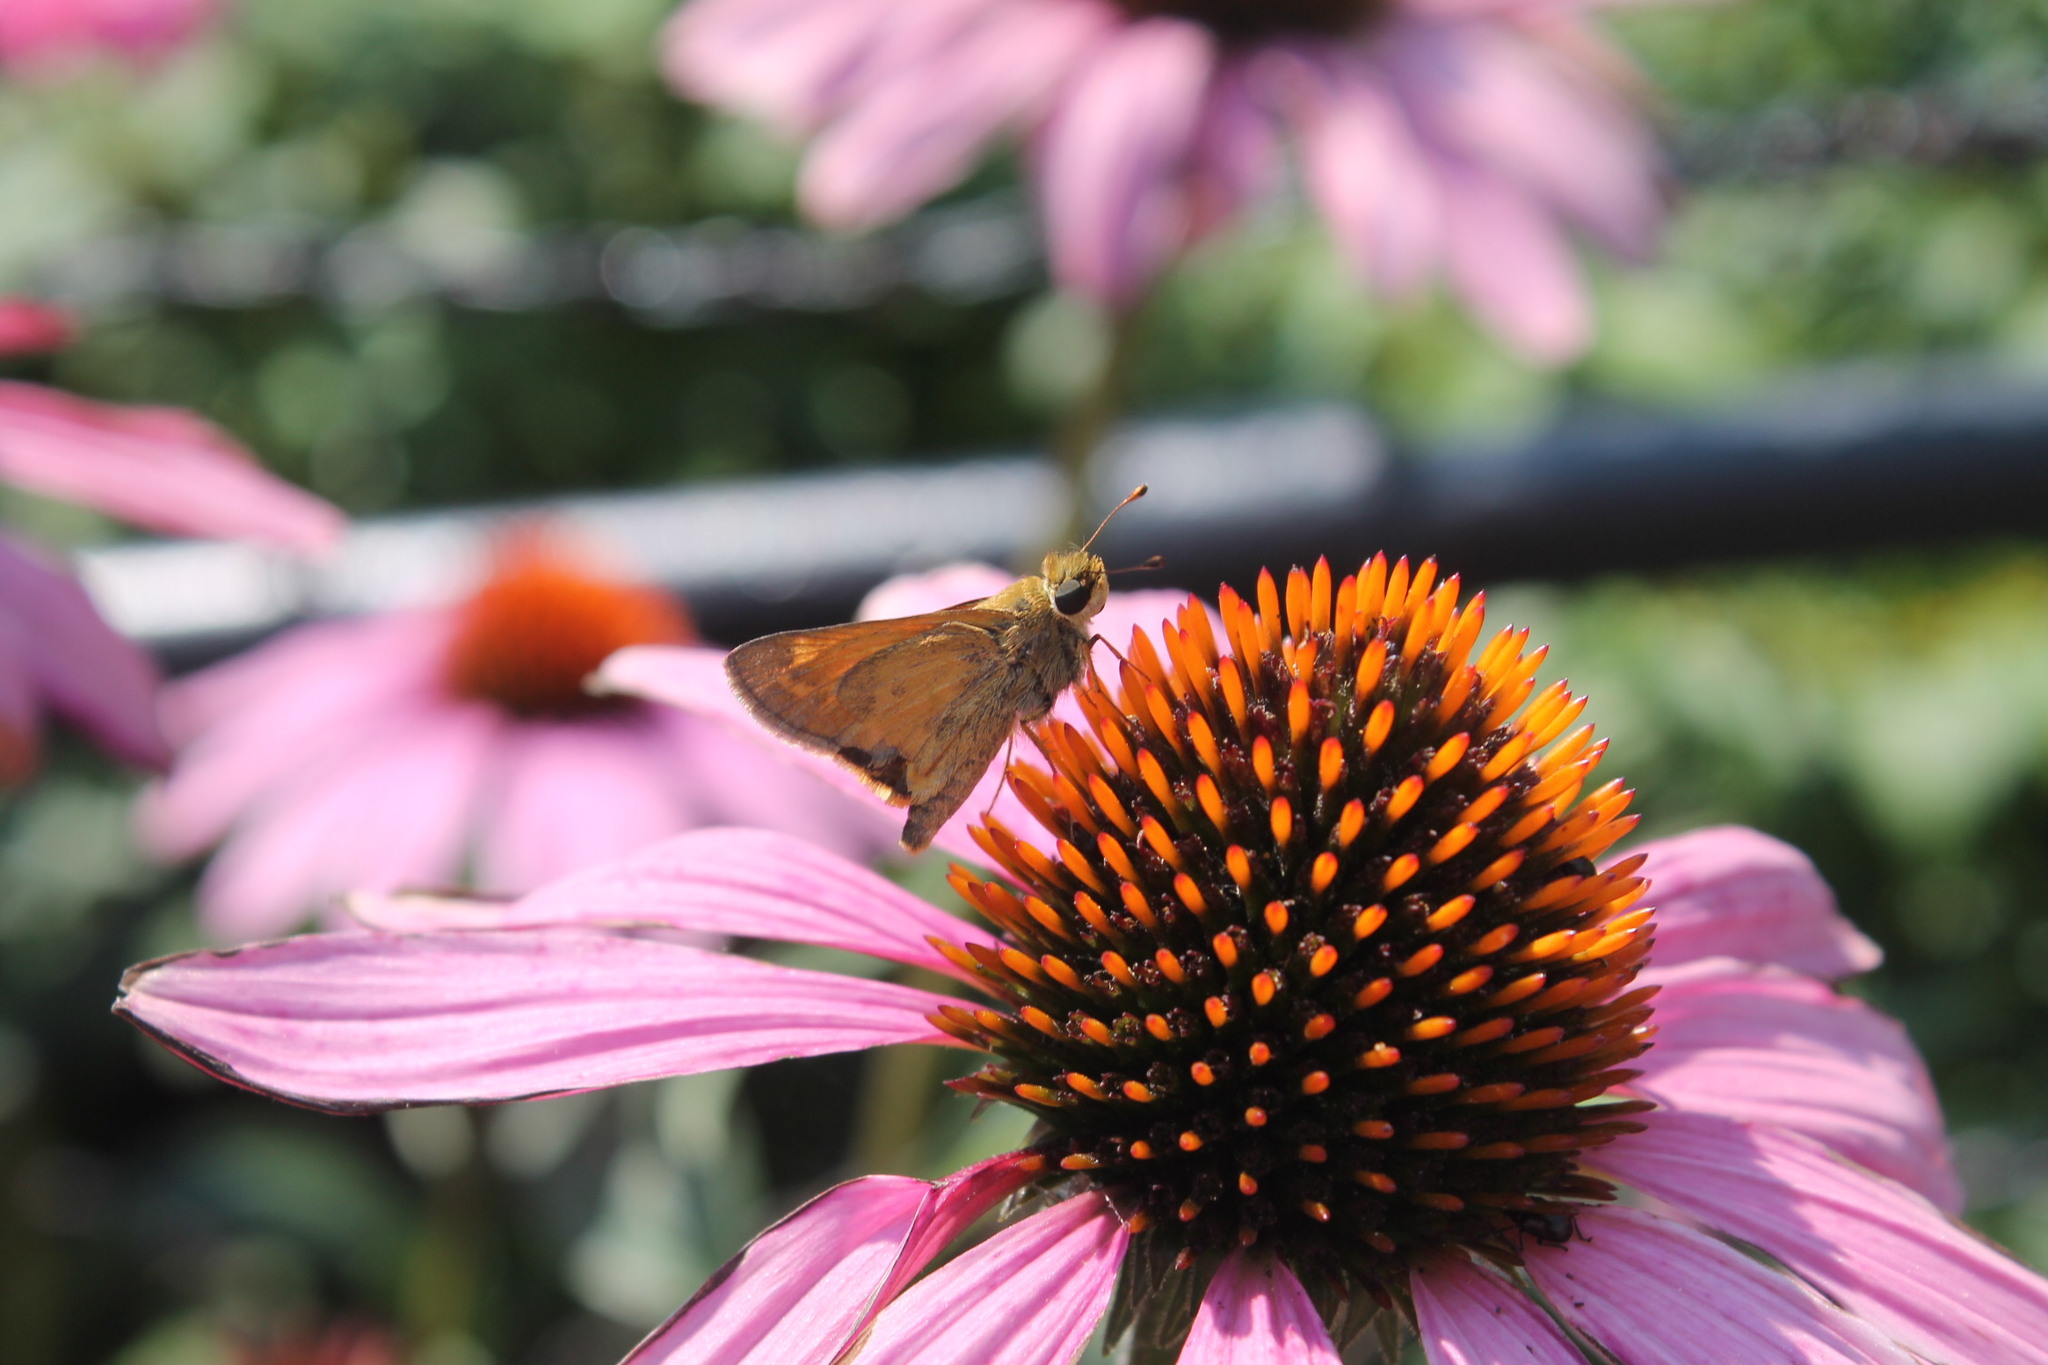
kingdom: Animalia
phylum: Arthropoda
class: Insecta
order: Lepidoptera
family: Hesperiidae
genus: Atalopedes
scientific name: Atalopedes
